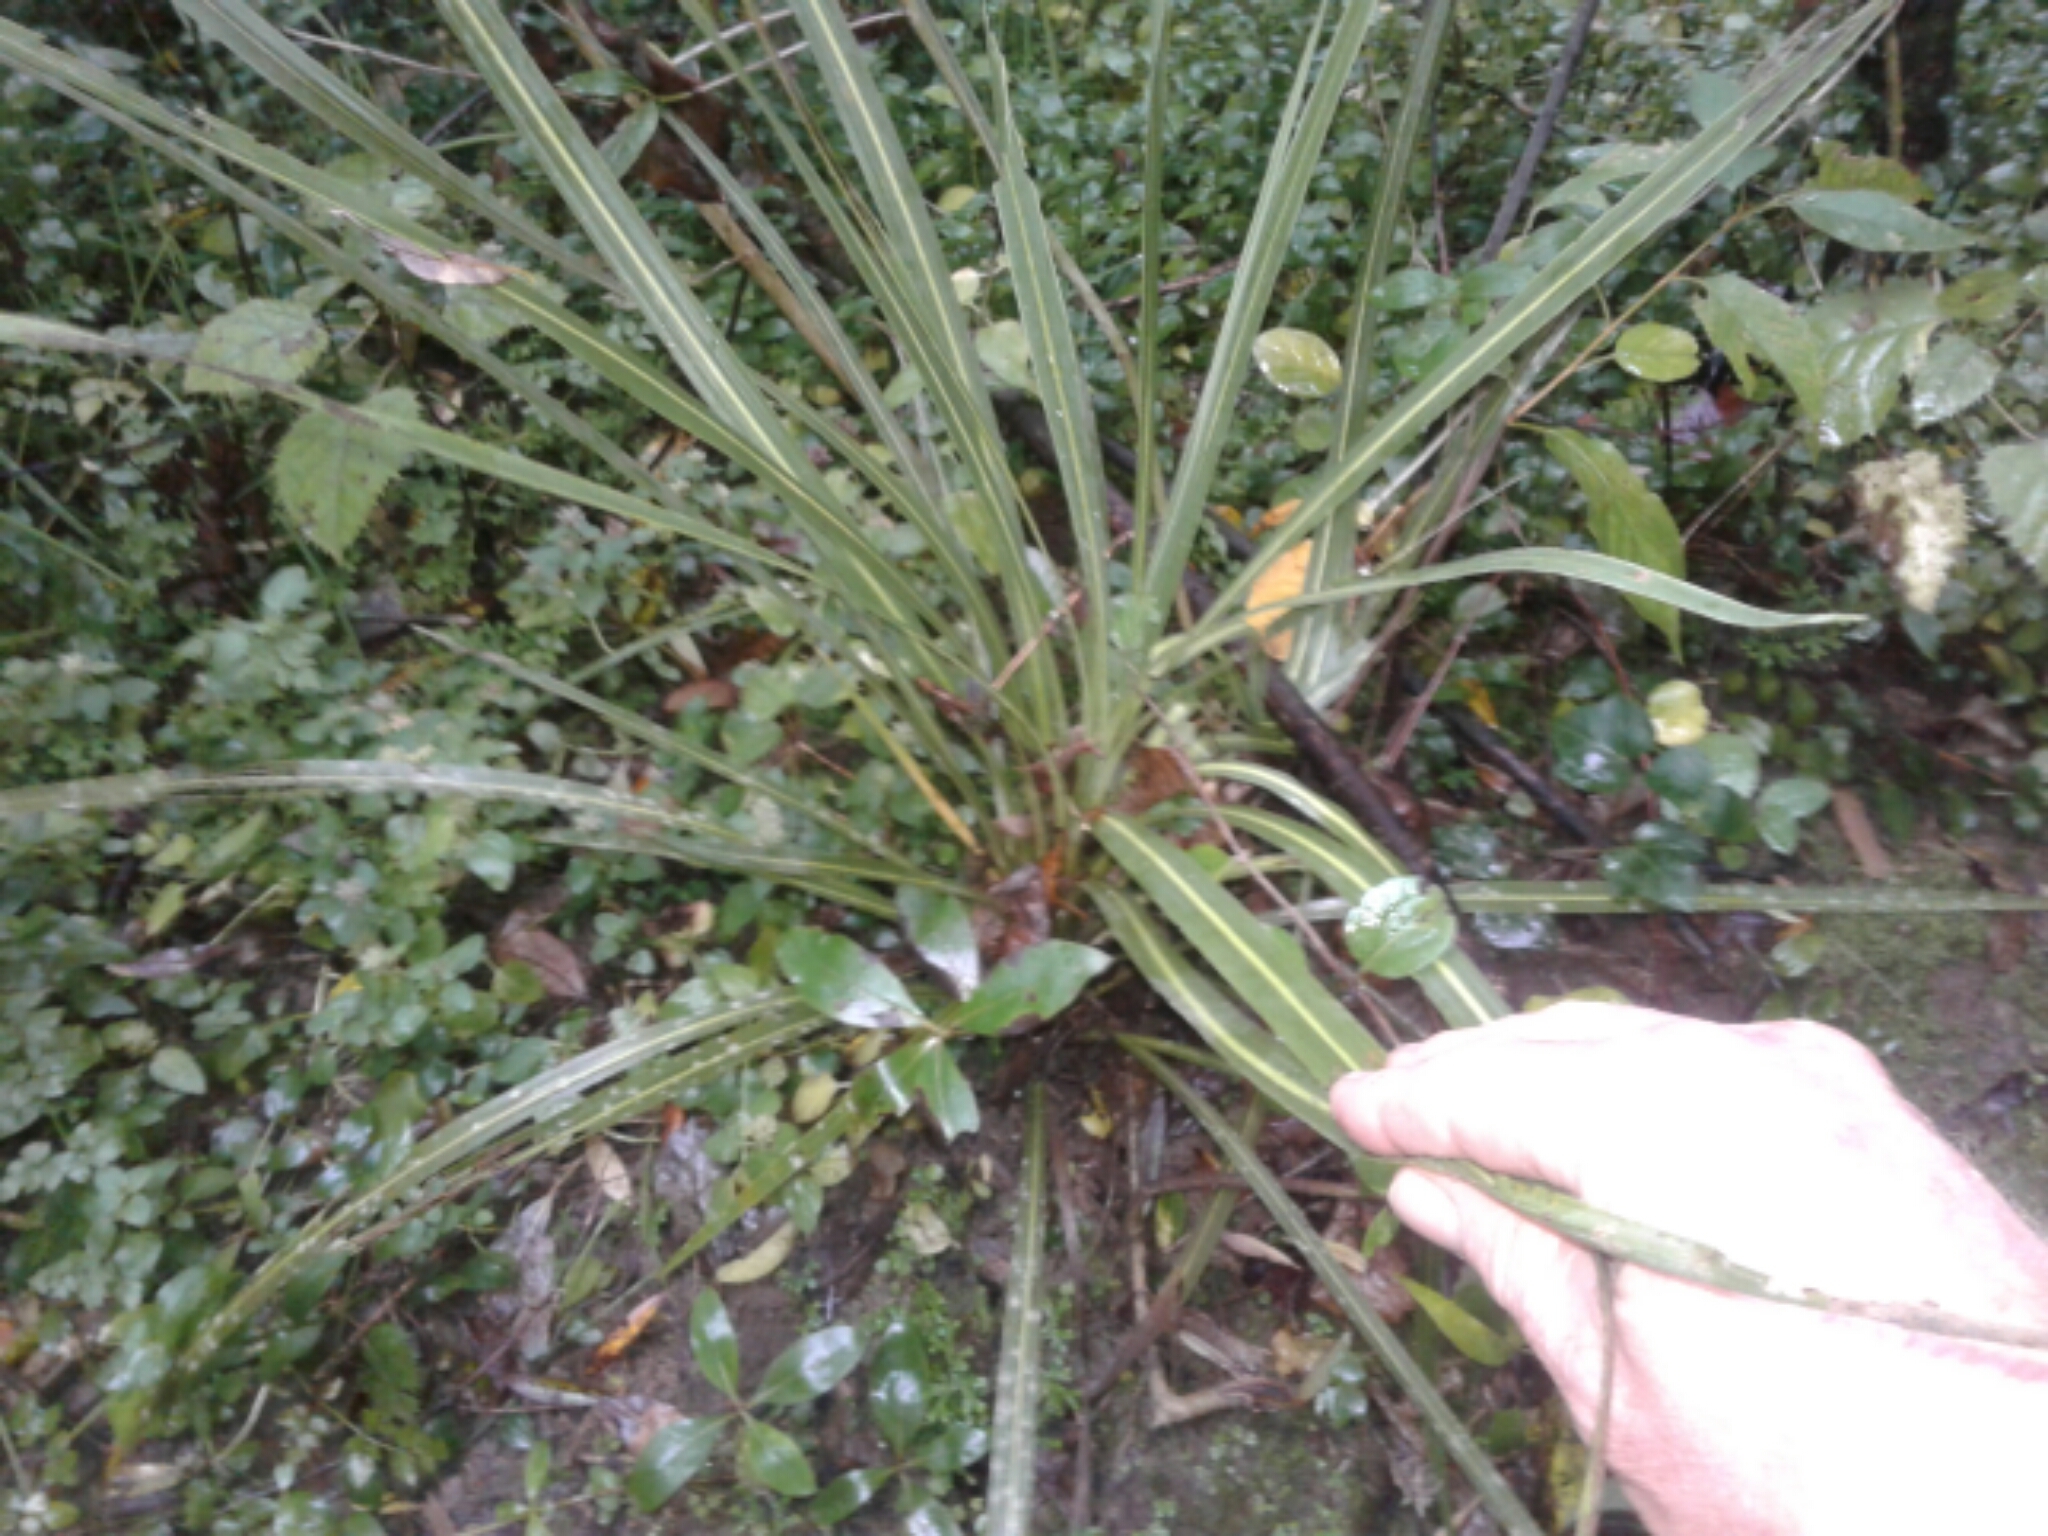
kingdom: Plantae
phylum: Tracheophyta
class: Liliopsida
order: Asparagales
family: Asparagaceae
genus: Cordyline
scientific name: Cordyline australis
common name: Cabbage-palm
